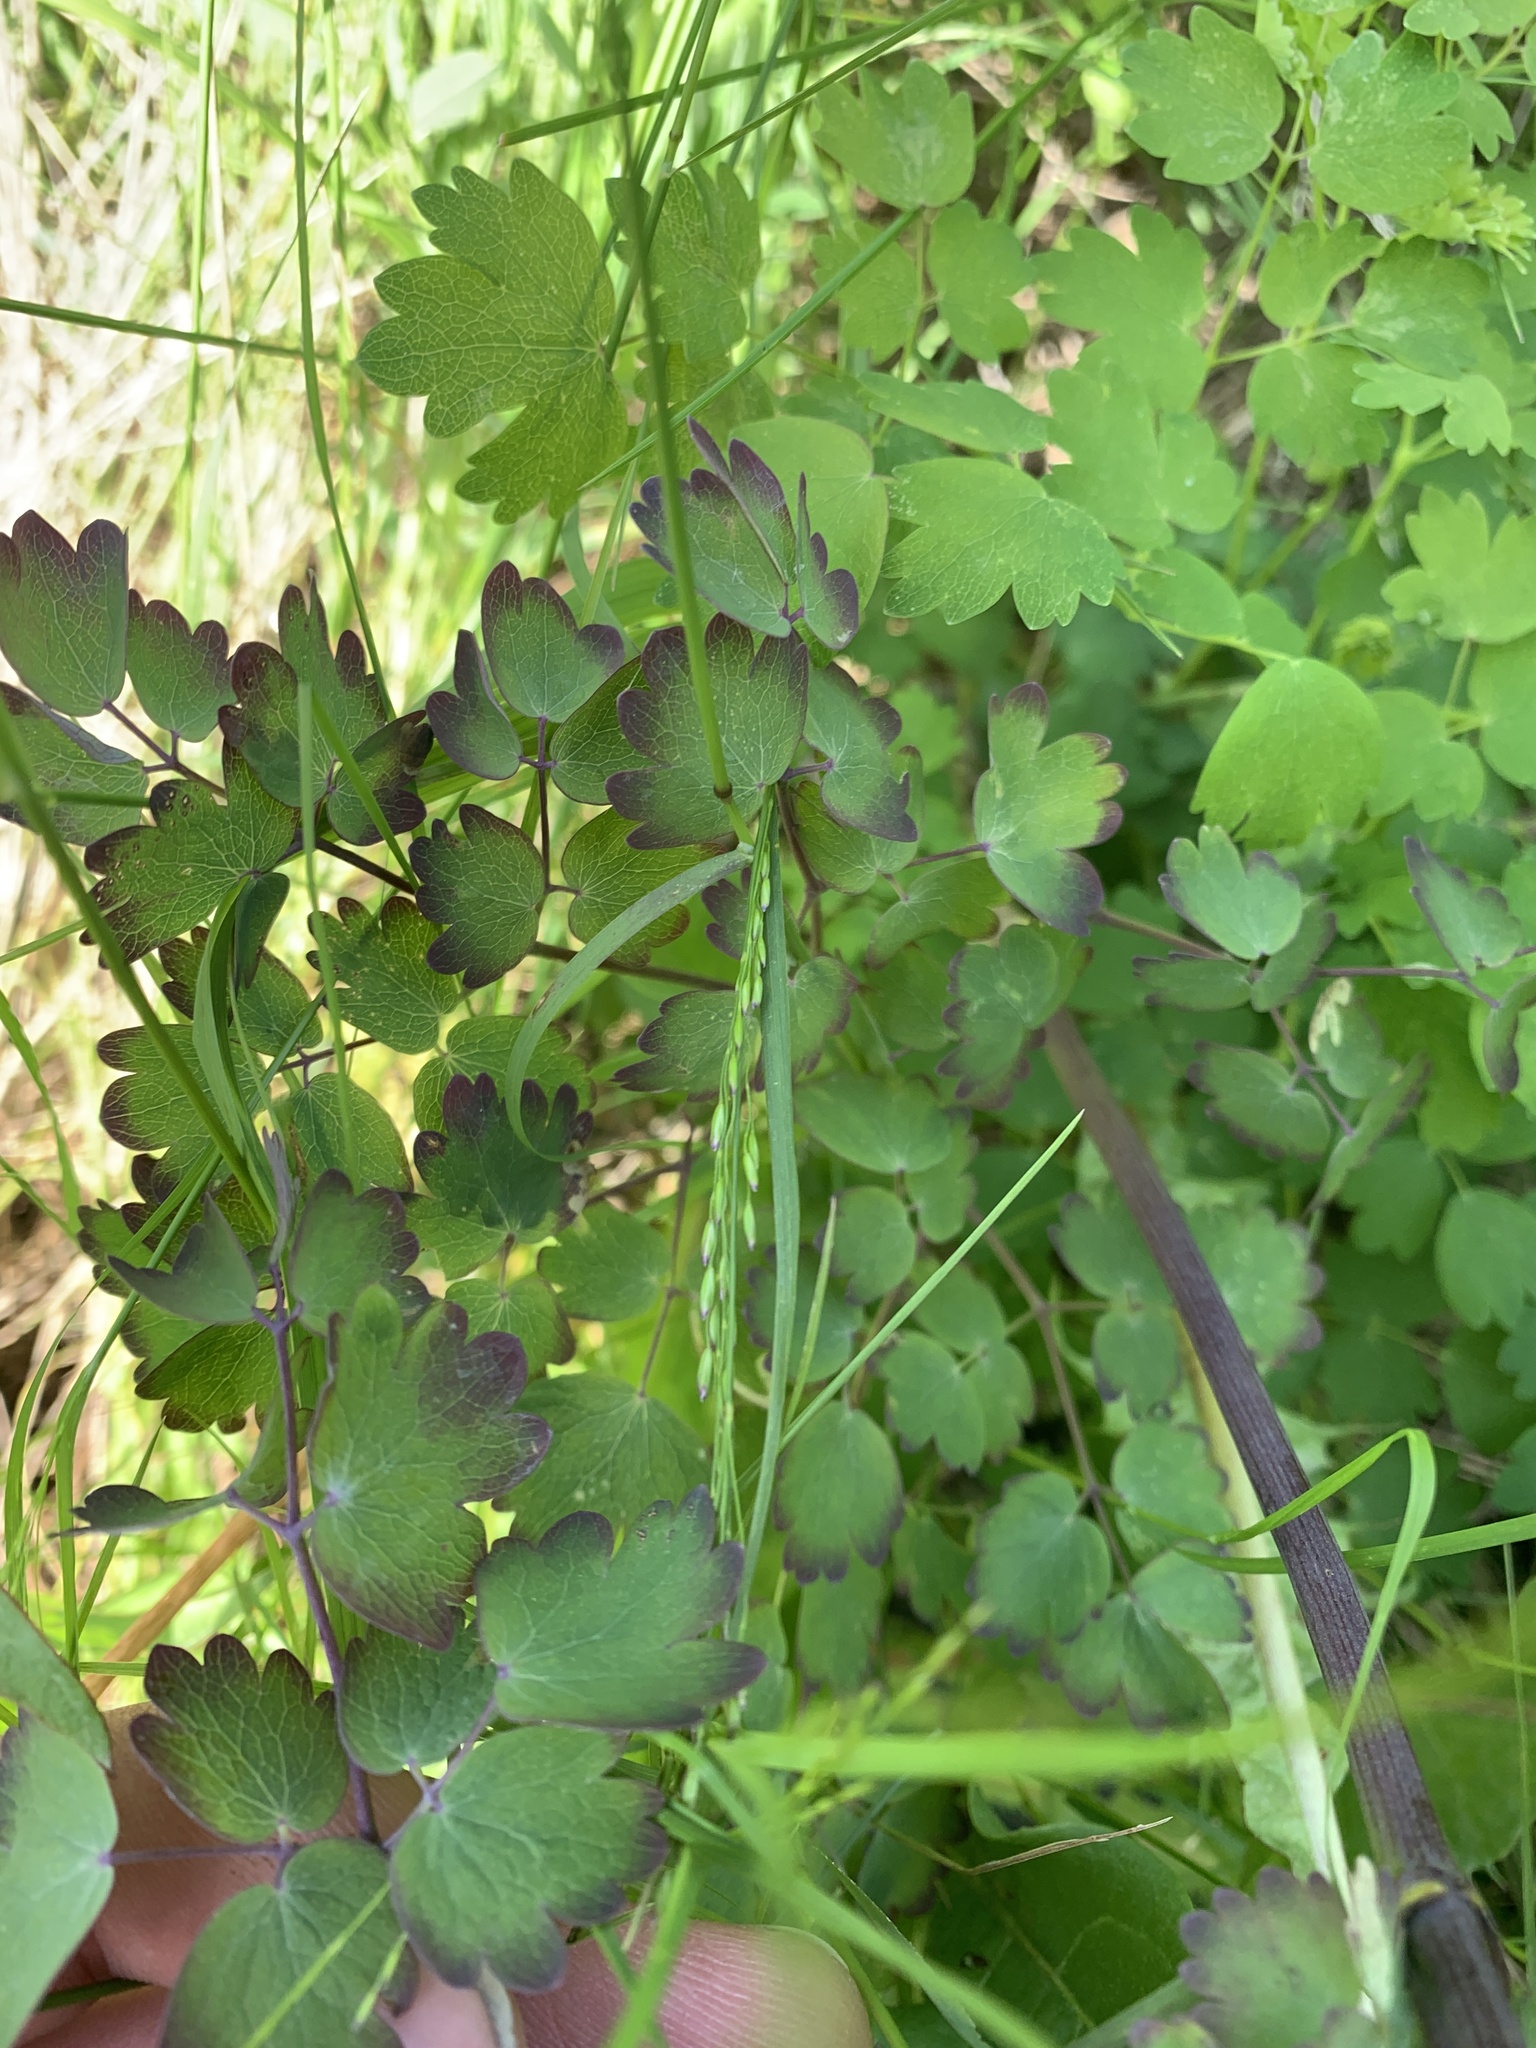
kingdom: Plantae
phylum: Tracheophyta
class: Magnoliopsida
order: Ranunculales
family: Ranunculaceae
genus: Thalictrum
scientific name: Thalictrum venulosum
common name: Early meadow-rue
